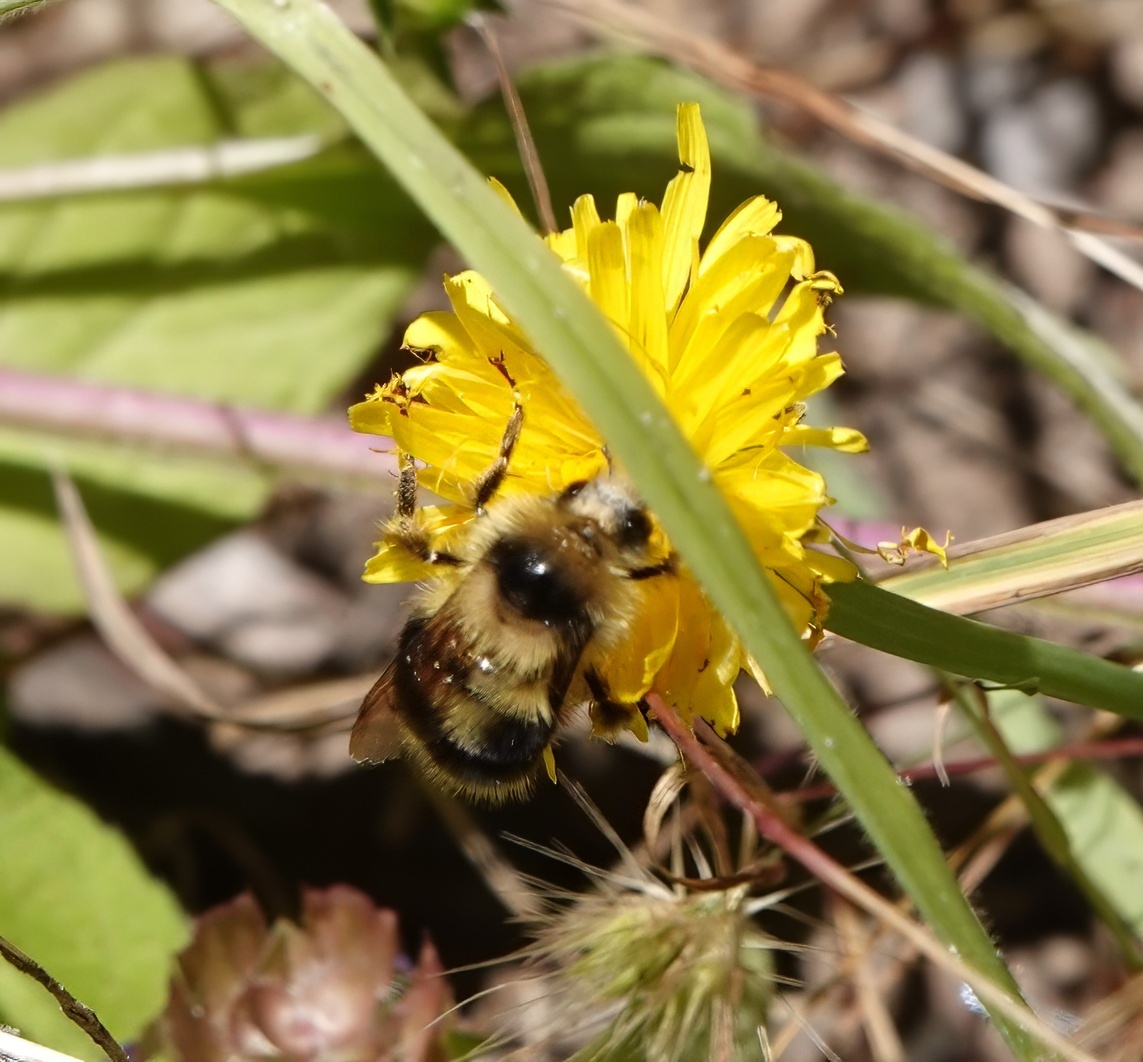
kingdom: Animalia
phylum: Arthropoda
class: Insecta
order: Hymenoptera
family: Apidae
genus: Bombus
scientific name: Bombus melanopygus
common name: Black tail bumble bee
